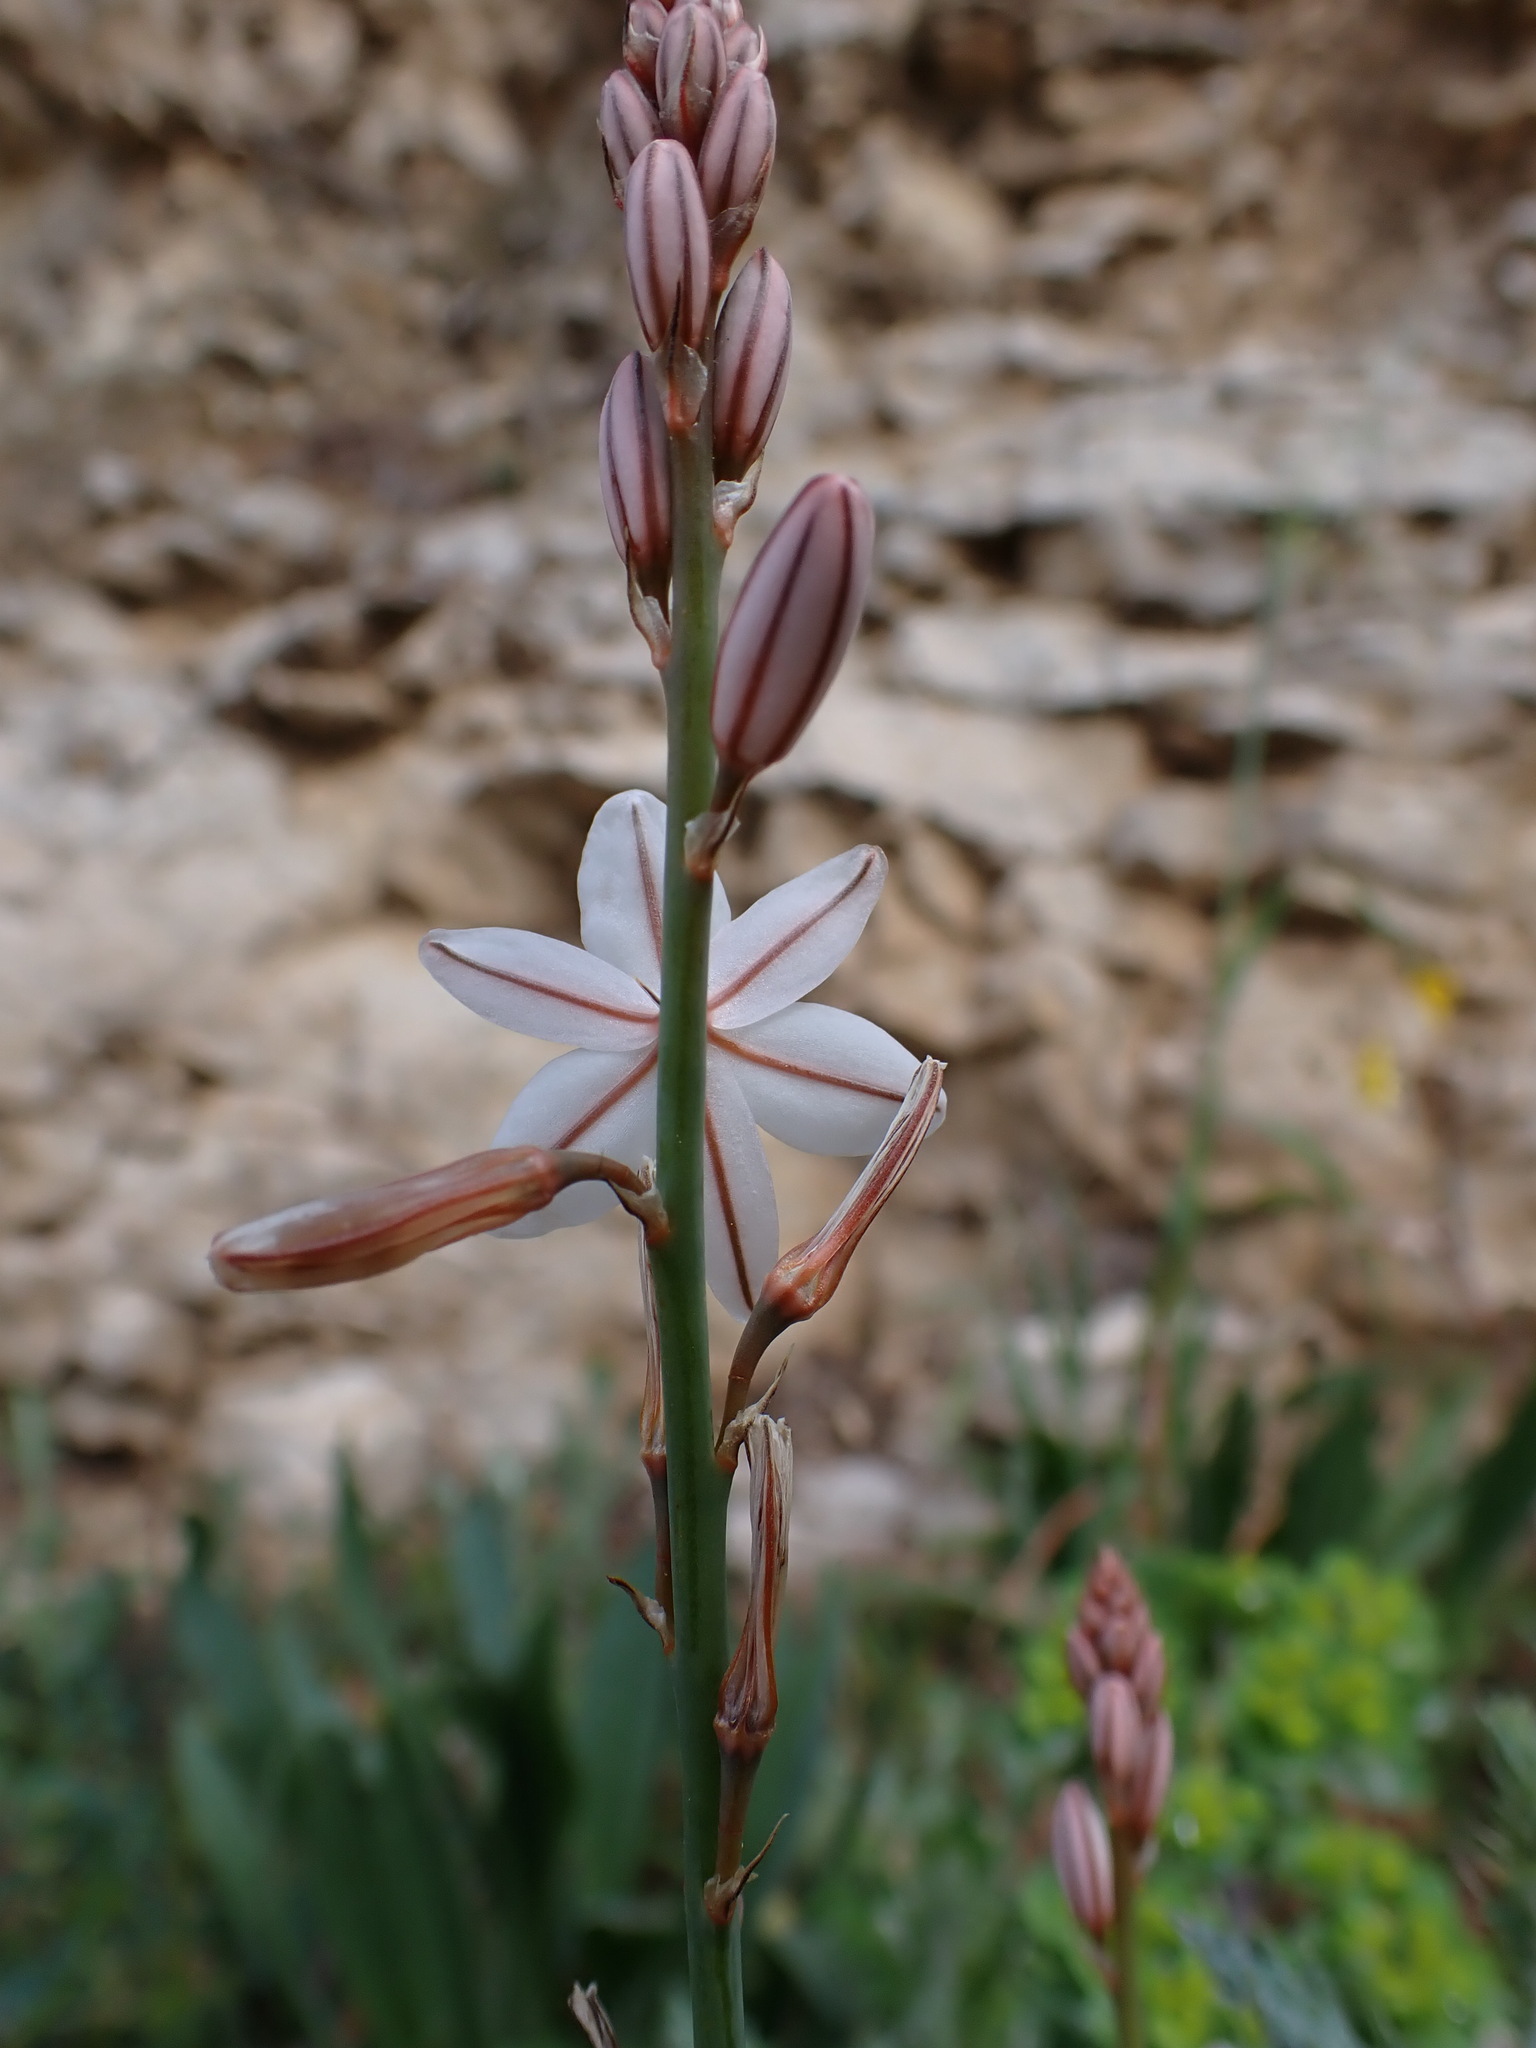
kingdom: Plantae
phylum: Tracheophyta
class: Liliopsida
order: Asparagales
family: Asphodelaceae
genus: Asphodelus
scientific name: Asphodelus fistulosus
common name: Onionweed
